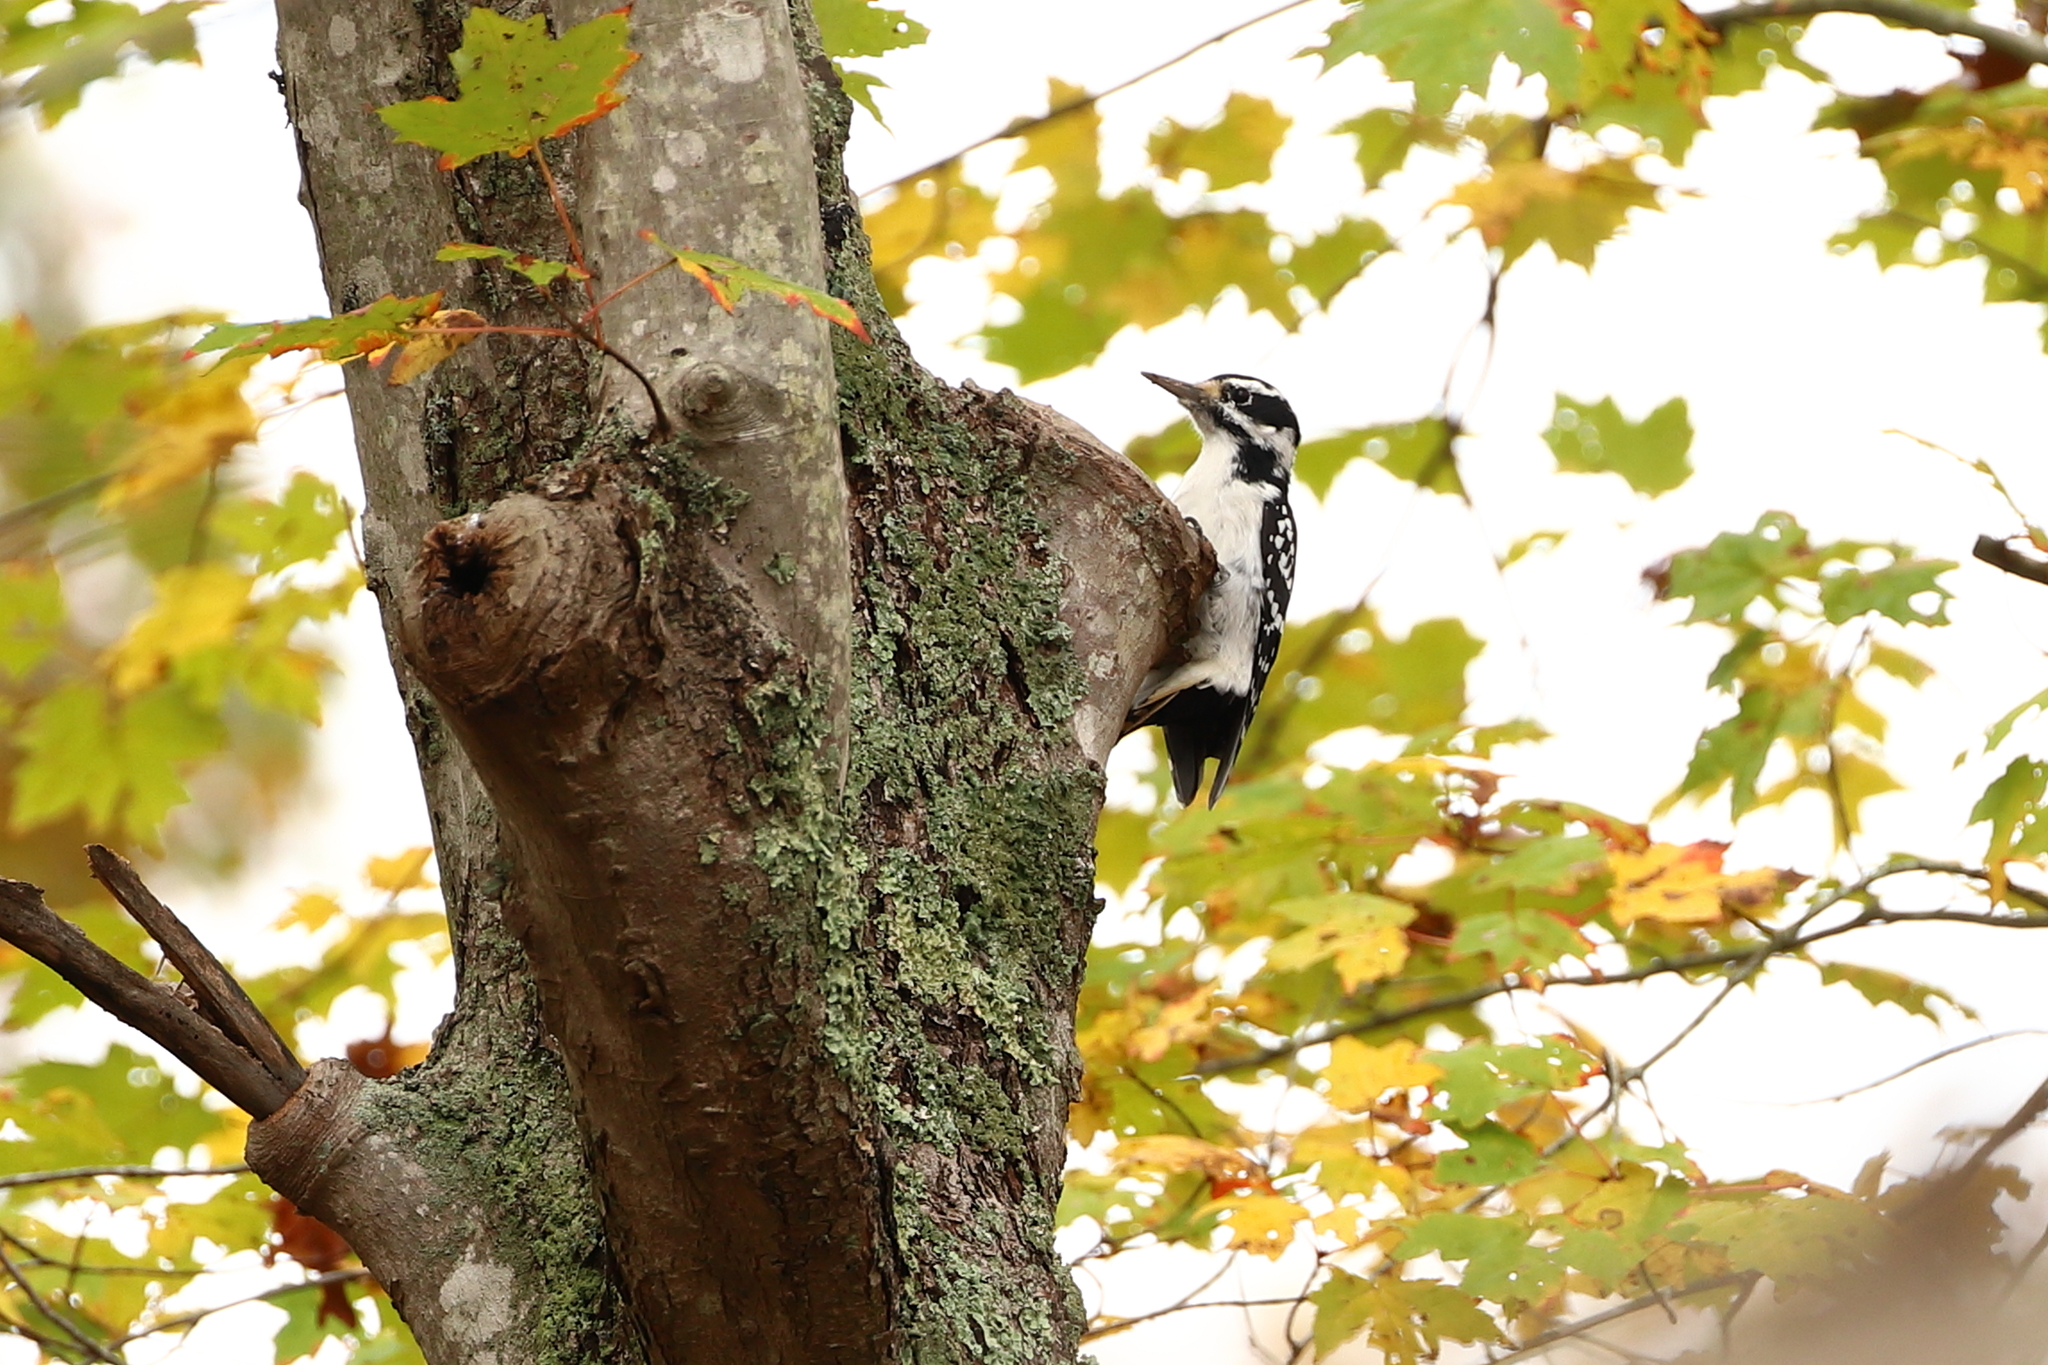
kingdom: Animalia
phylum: Chordata
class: Aves
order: Piciformes
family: Picidae
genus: Leuconotopicus
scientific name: Leuconotopicus villosus
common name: Hairy woodpecker
